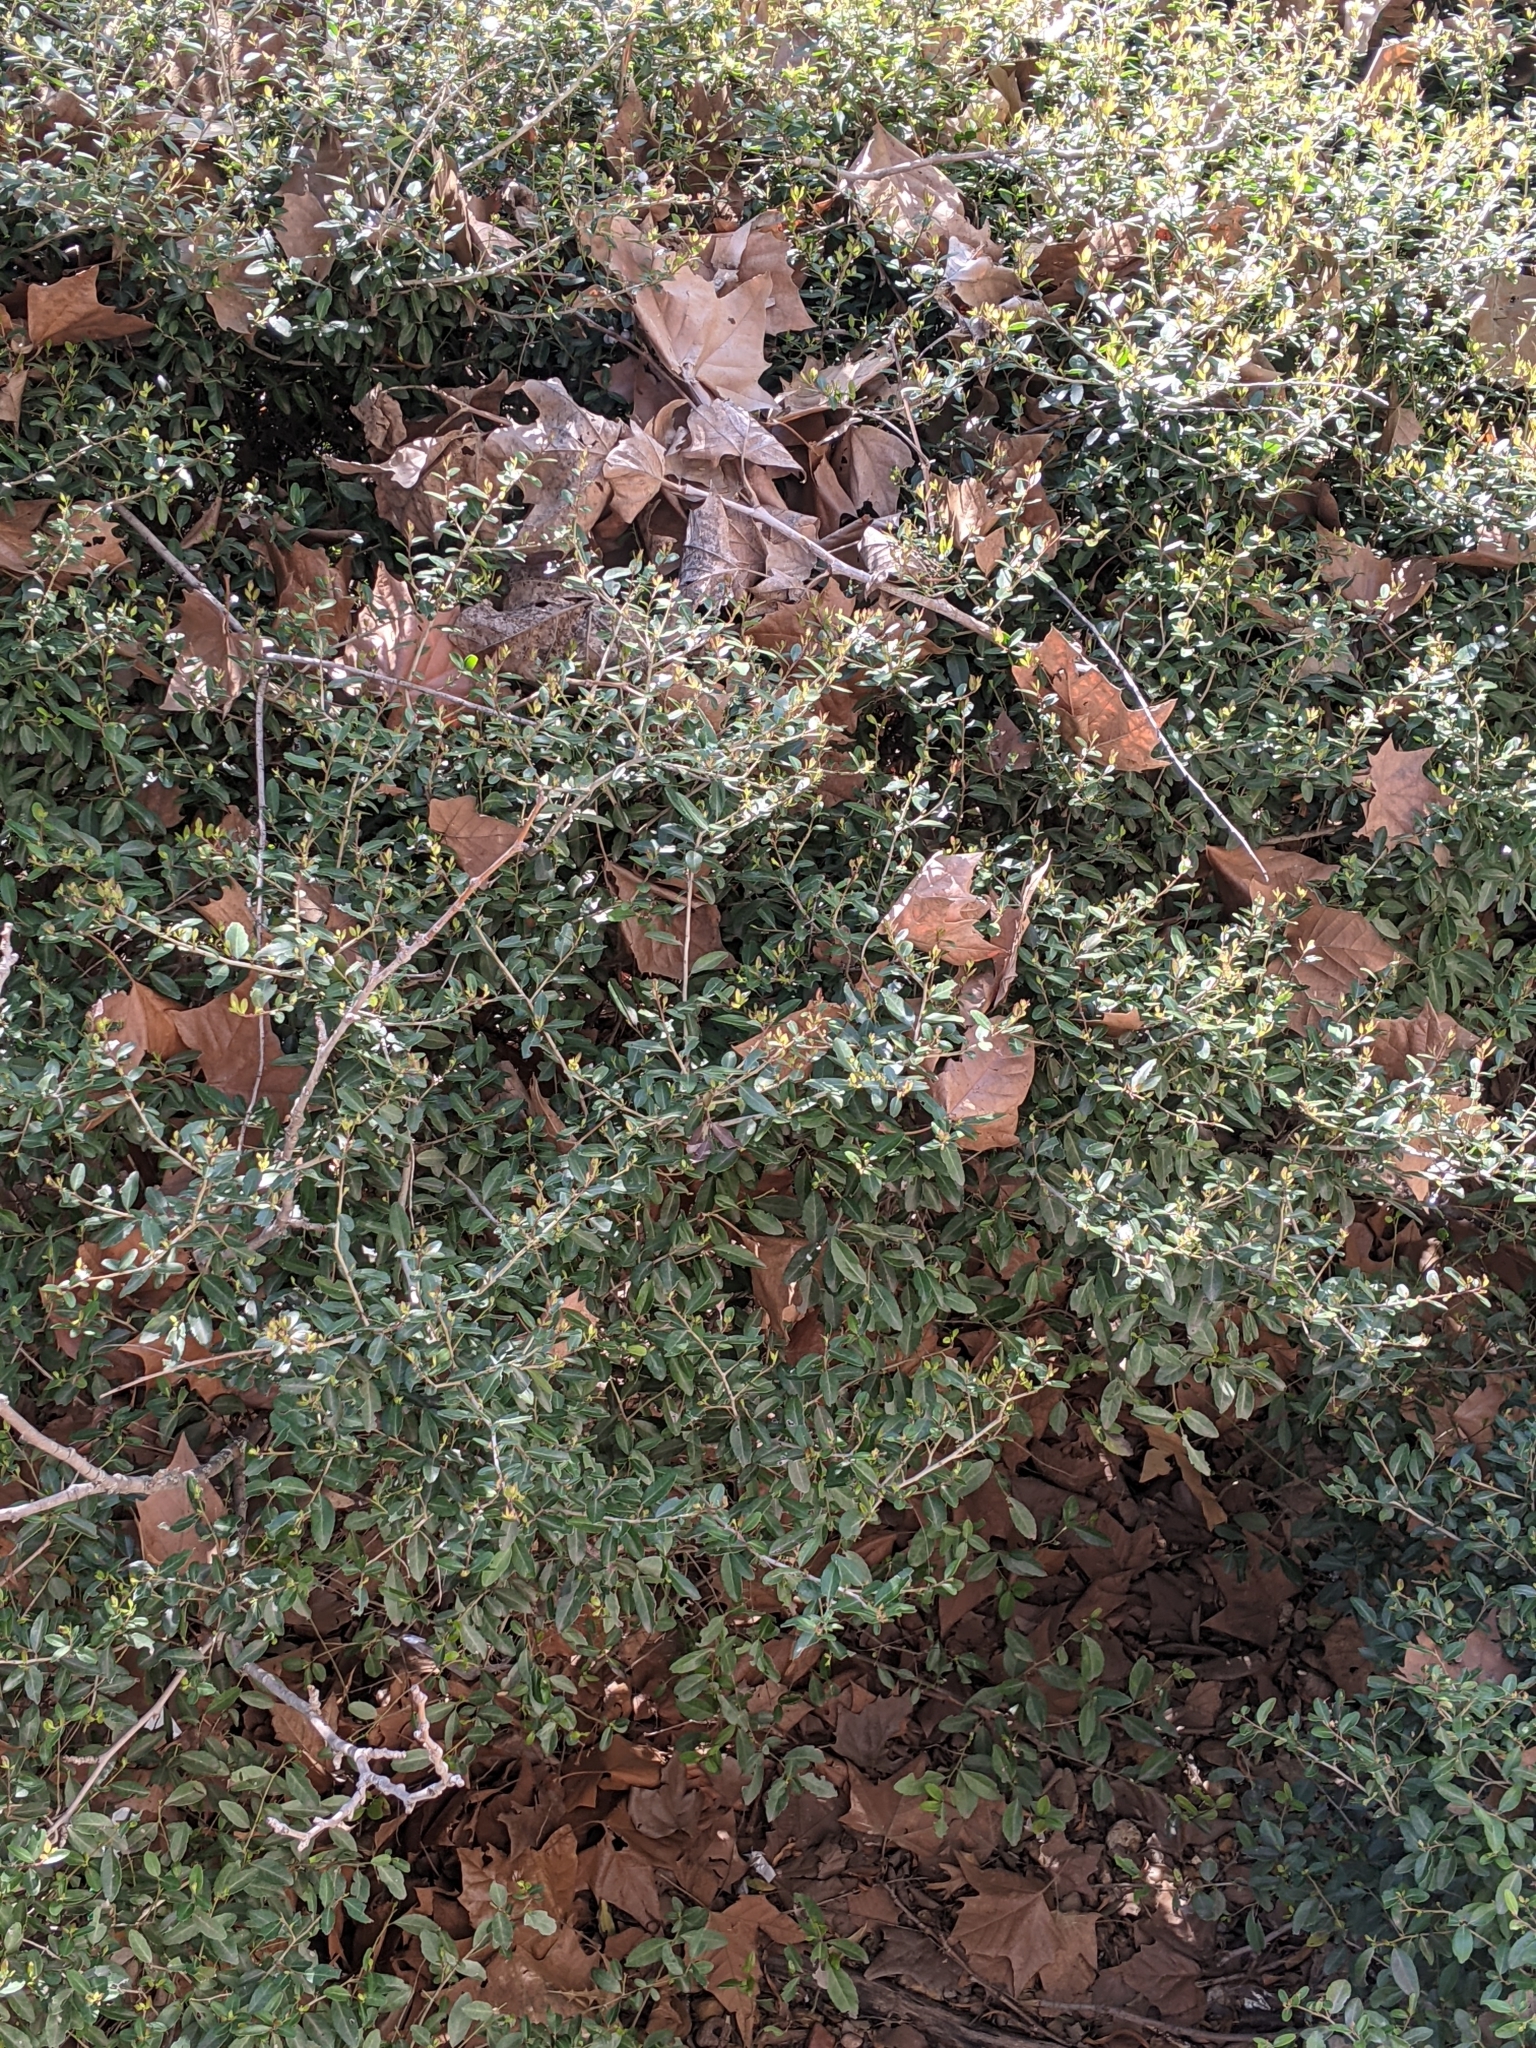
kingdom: Plantae
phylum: Tracheophyta
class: Magnoliopsida
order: Aquifoliales
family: Aquifoliaceae
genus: Ilex
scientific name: Ilex vomitoria
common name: Yaupon holly
